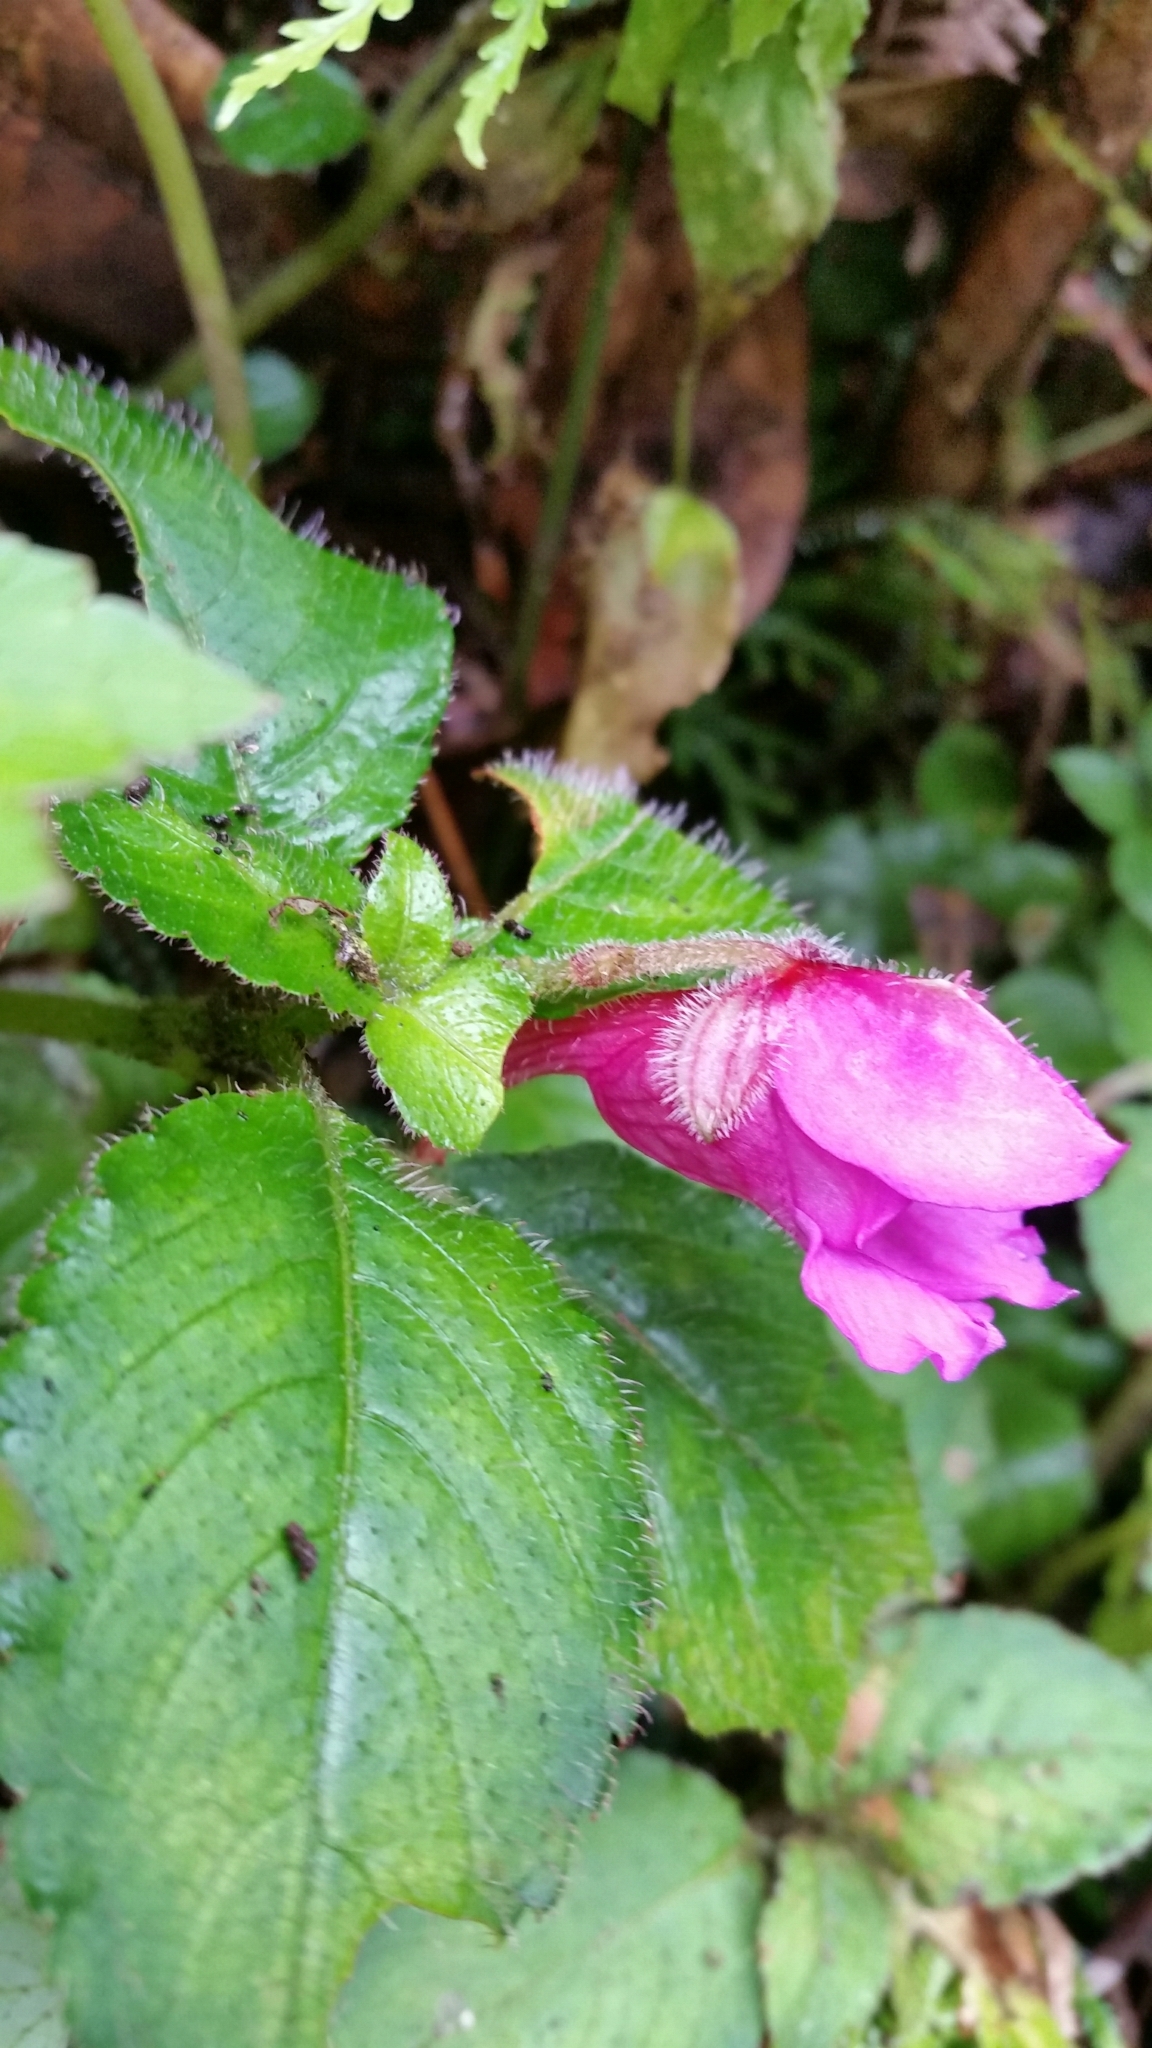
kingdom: Plantae
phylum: Tracheophyta
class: Magnoliopsida
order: Ericales
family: Balsaminaceae
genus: Impatiens
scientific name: Impatiens napoensis
